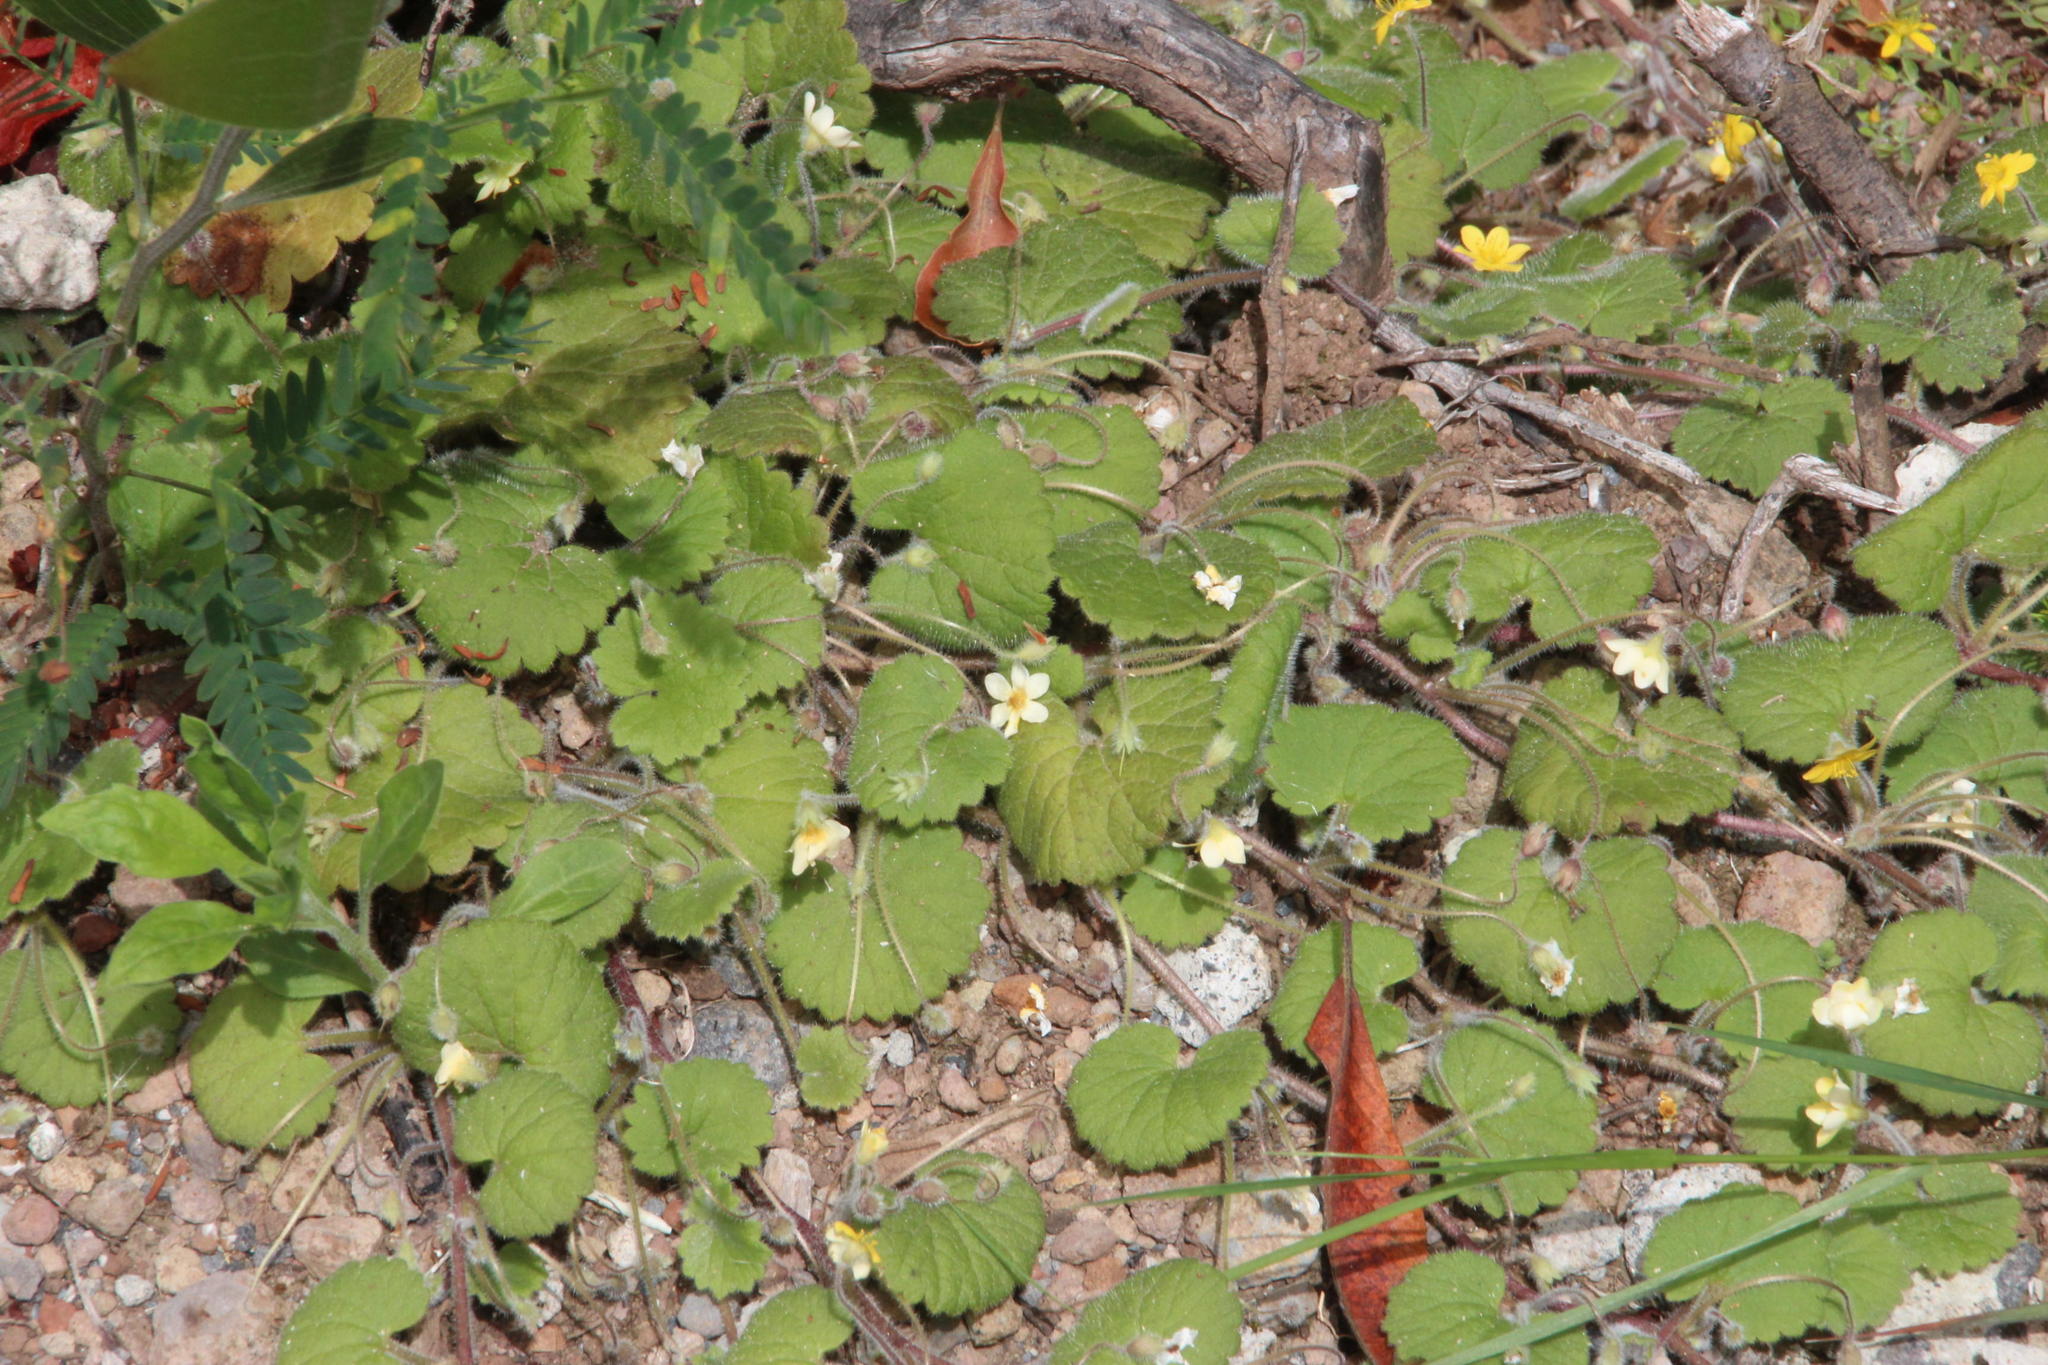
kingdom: Plantae
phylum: Tracheophyta
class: Magnoliopsida
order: Lamiales
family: Plantaginaceae
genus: Sibthorpia
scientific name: Sibthorpia peregrina
